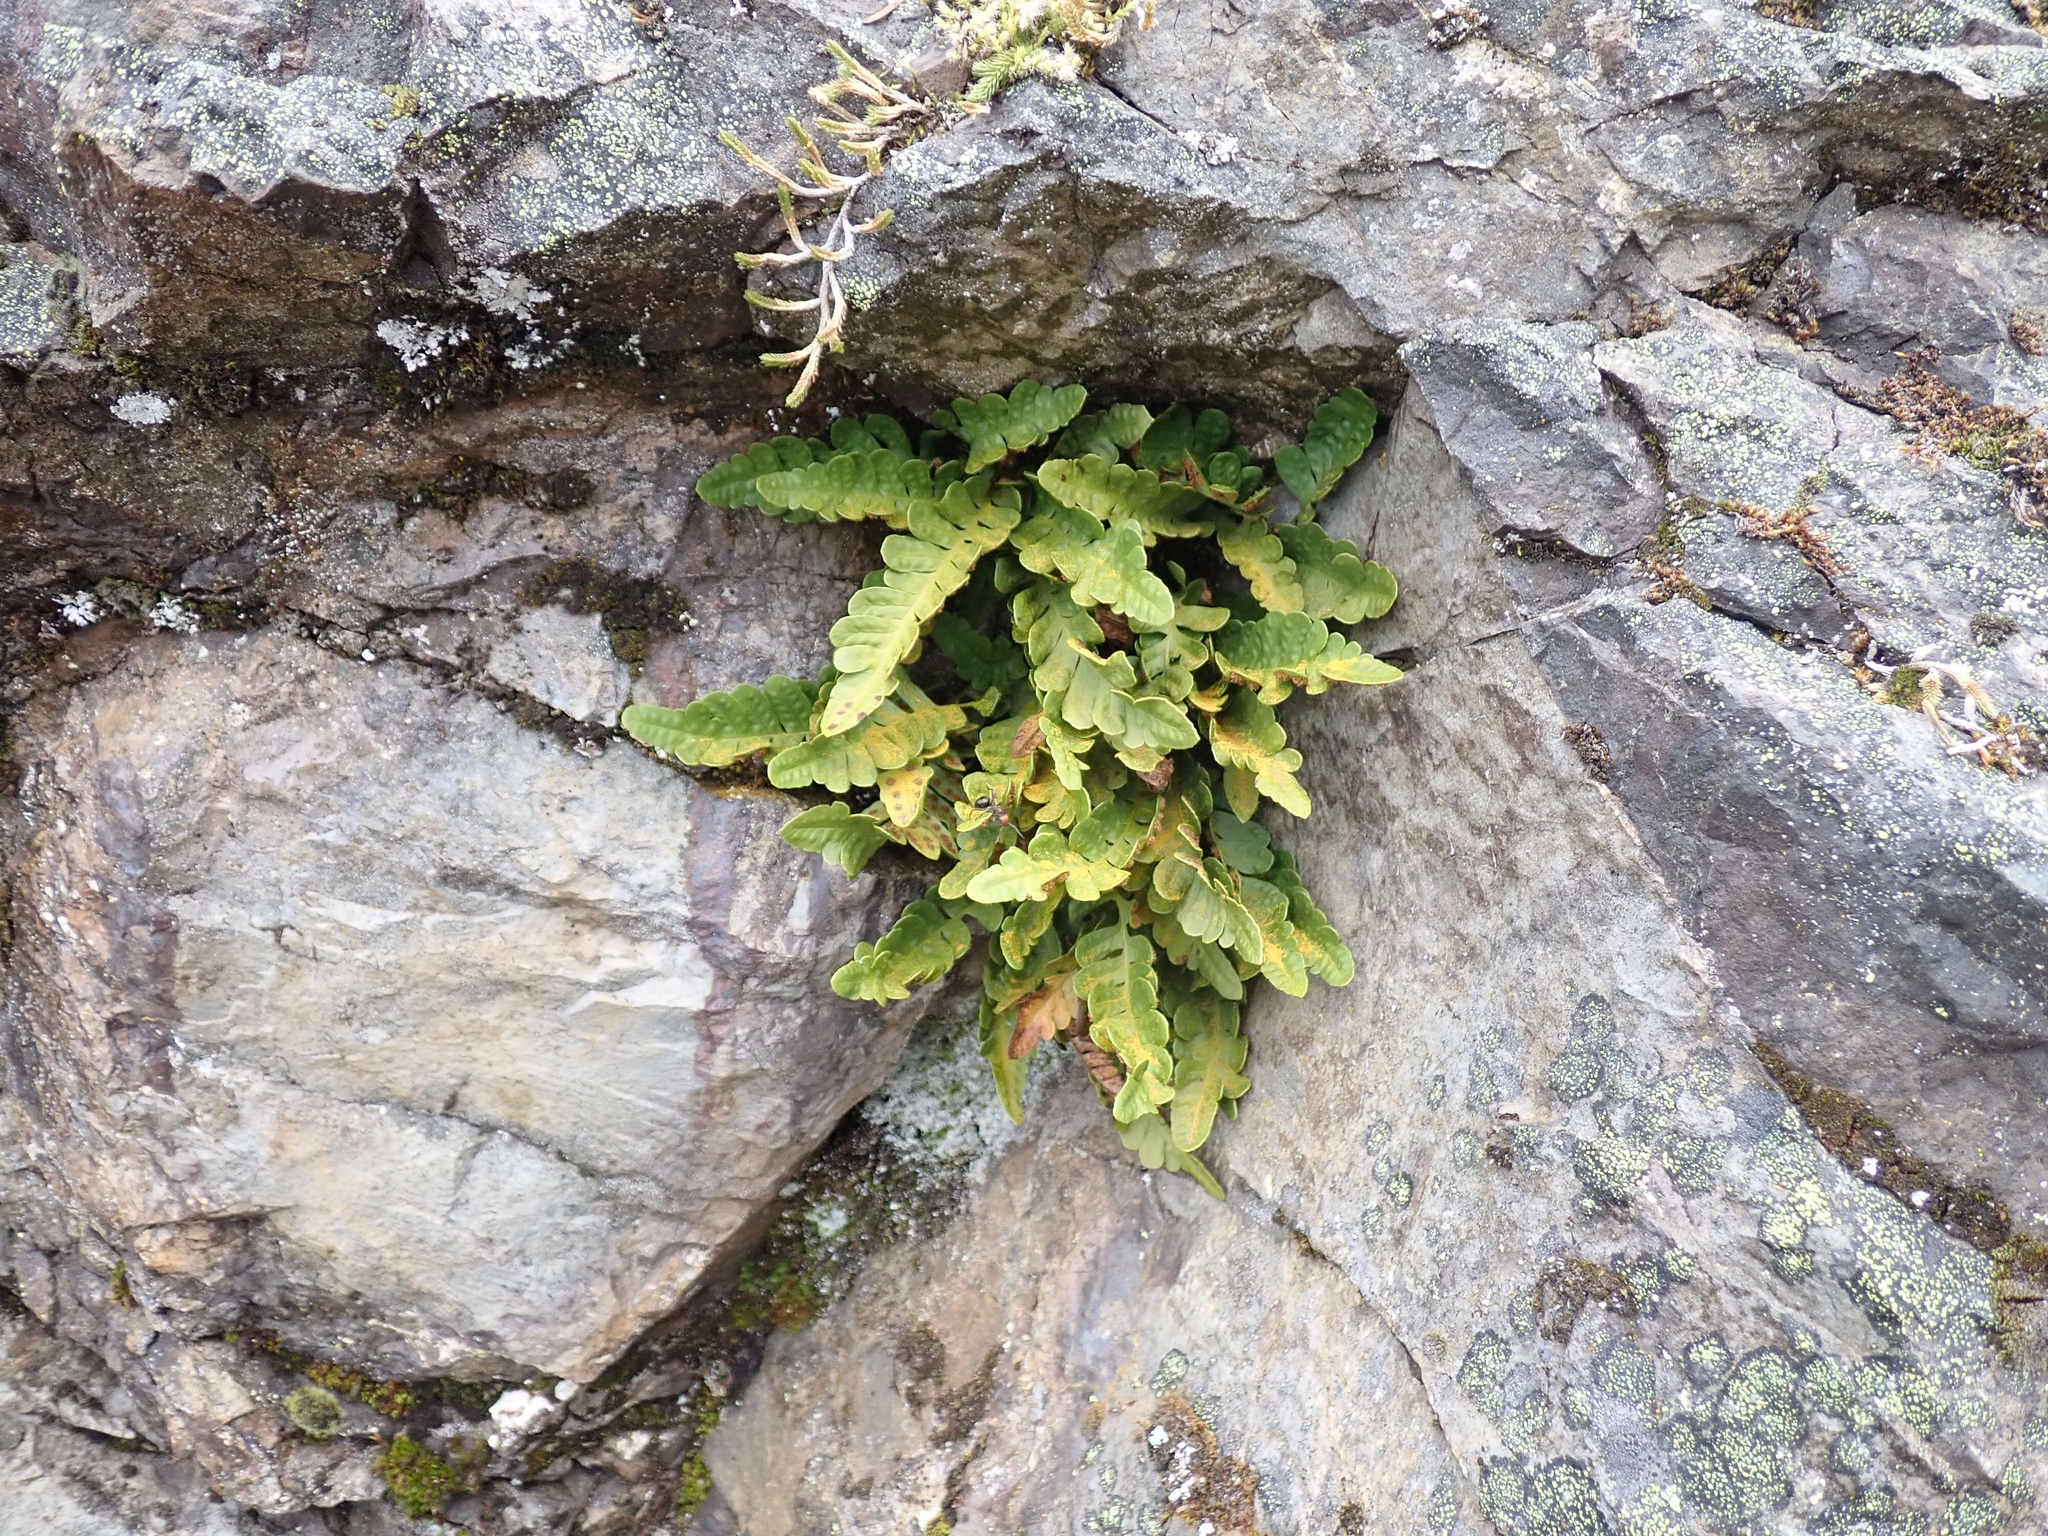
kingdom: Plantae
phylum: Tracheophyta
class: Polypodiopsida
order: Polypodiales
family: Polypodiaceae
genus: Polypodium
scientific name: Polypodium amorphum
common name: Pacific polypody
